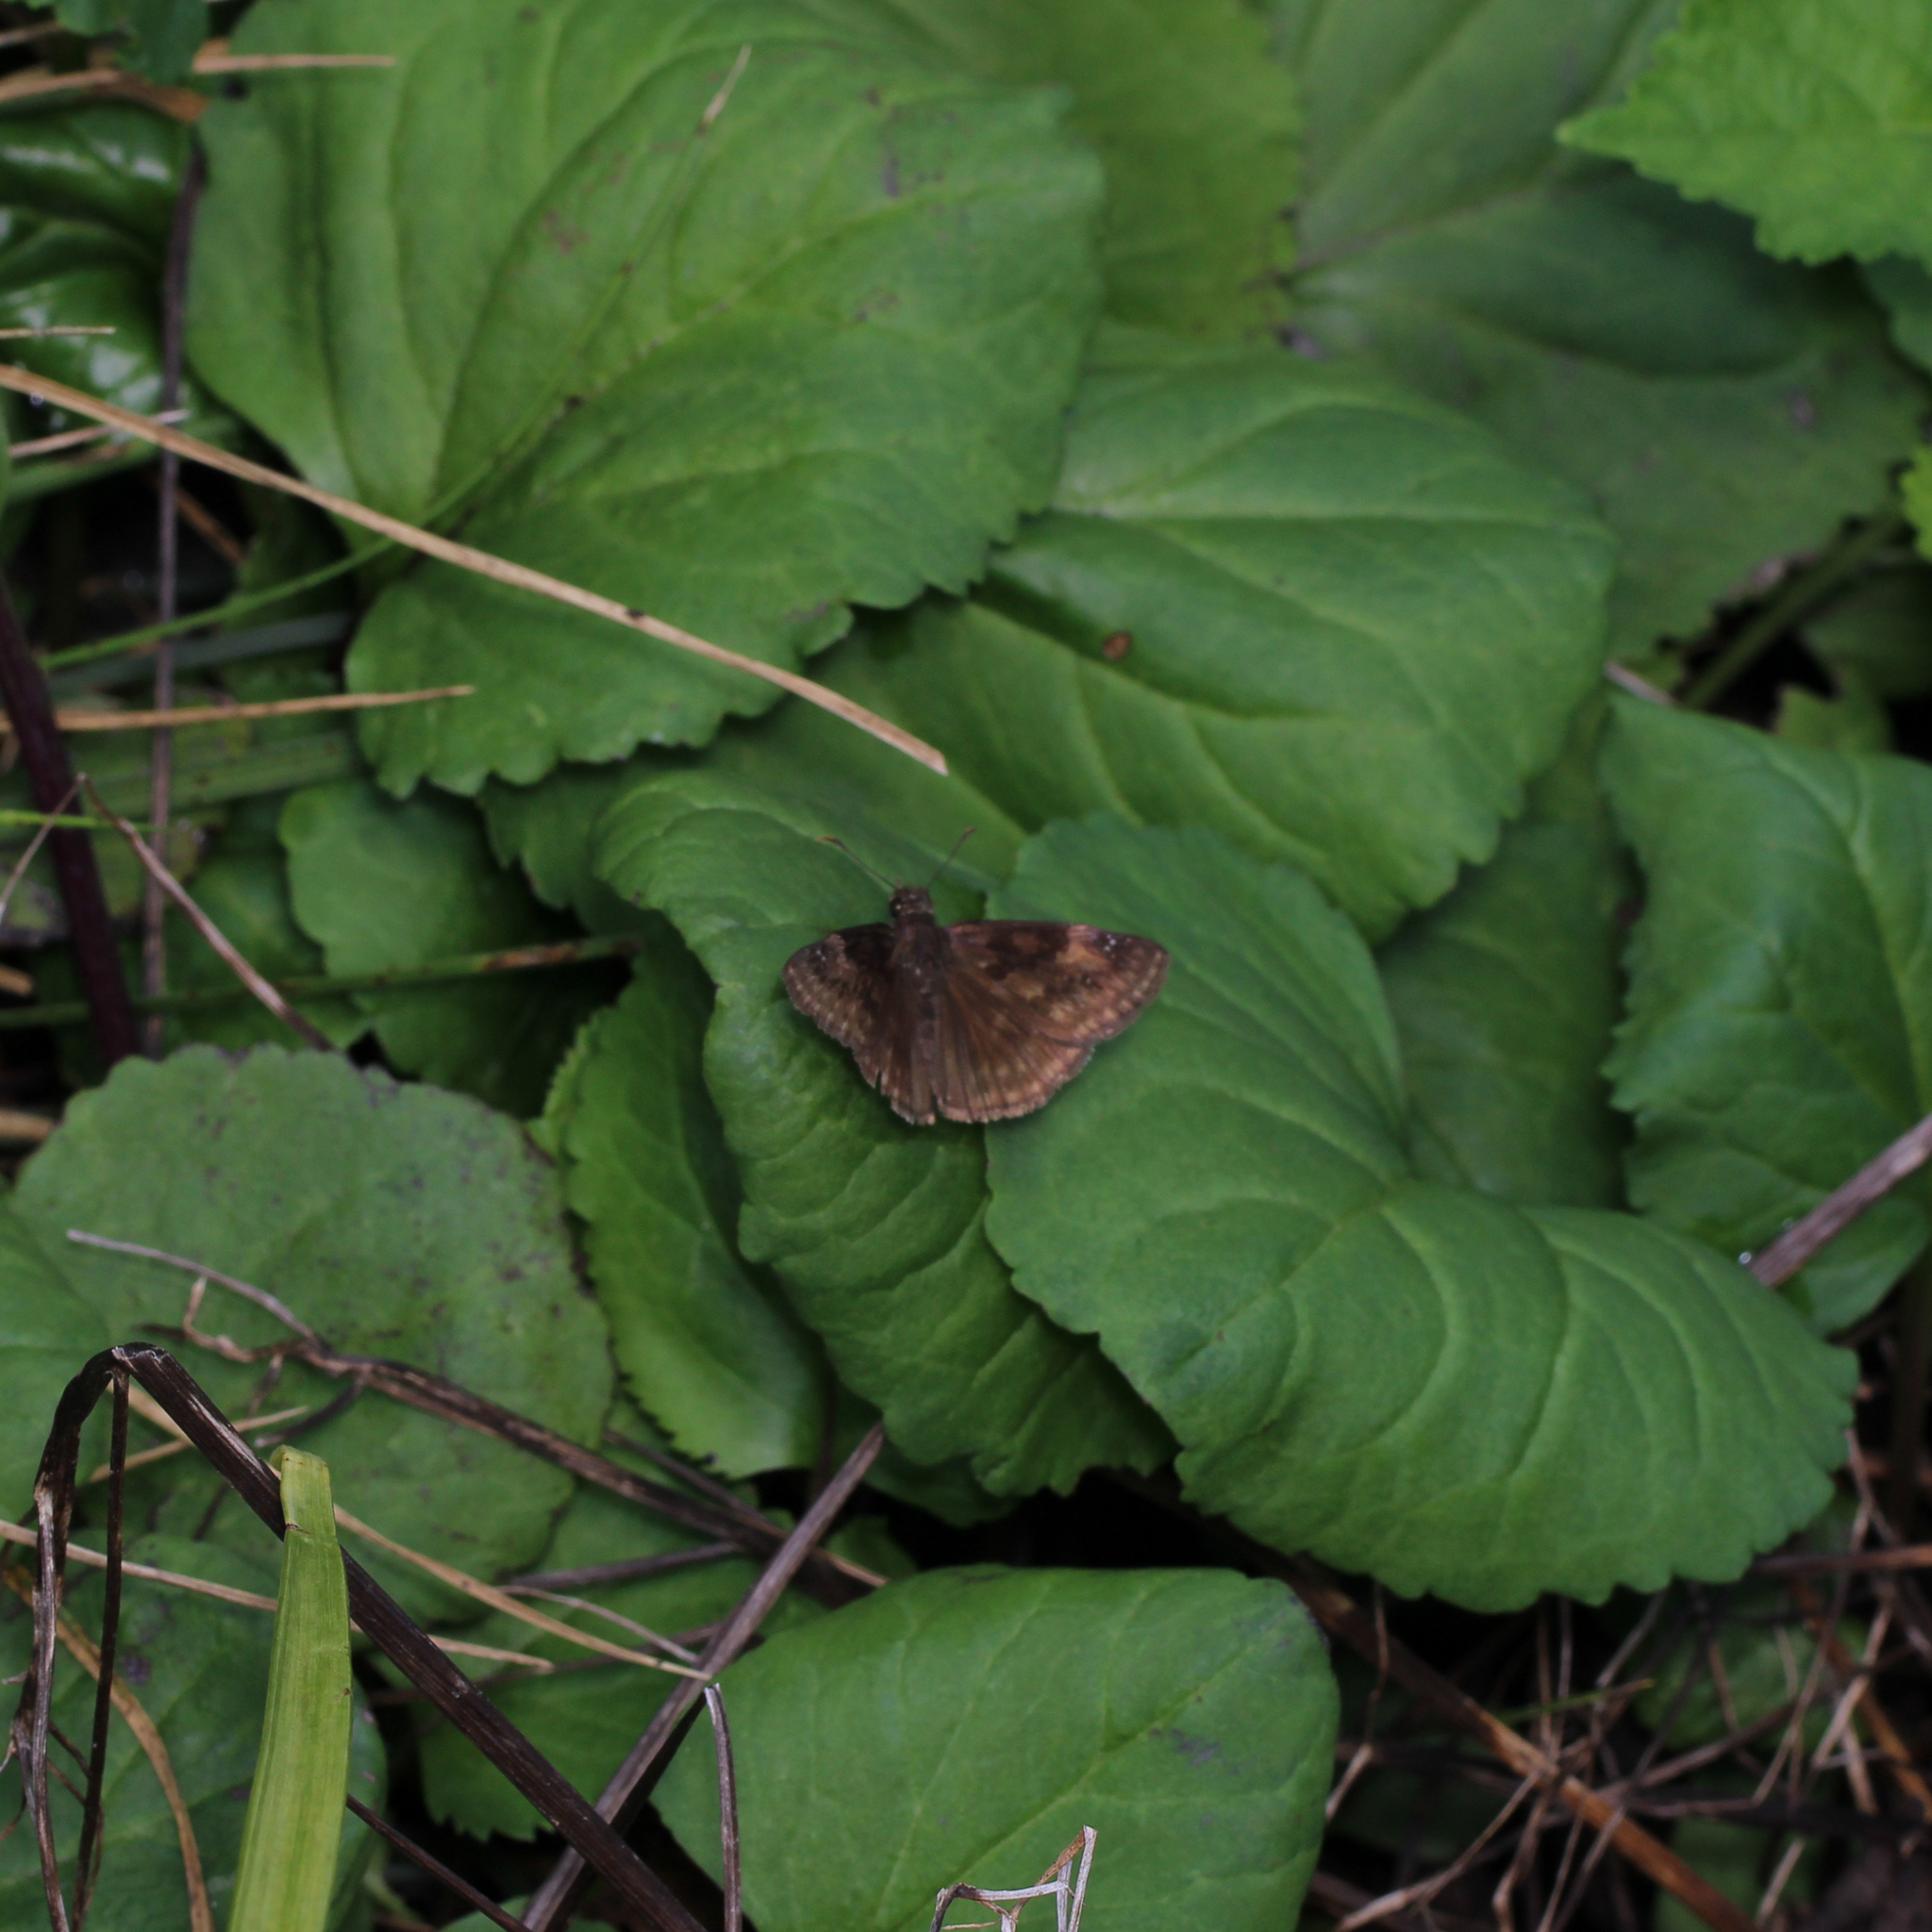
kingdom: Animalia
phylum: Arthropoda
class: Insecta
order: Lepidoptera
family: Hesperiidae
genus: Erynnis
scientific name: Erynnis baptisiae
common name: Wild indigo duskywing
